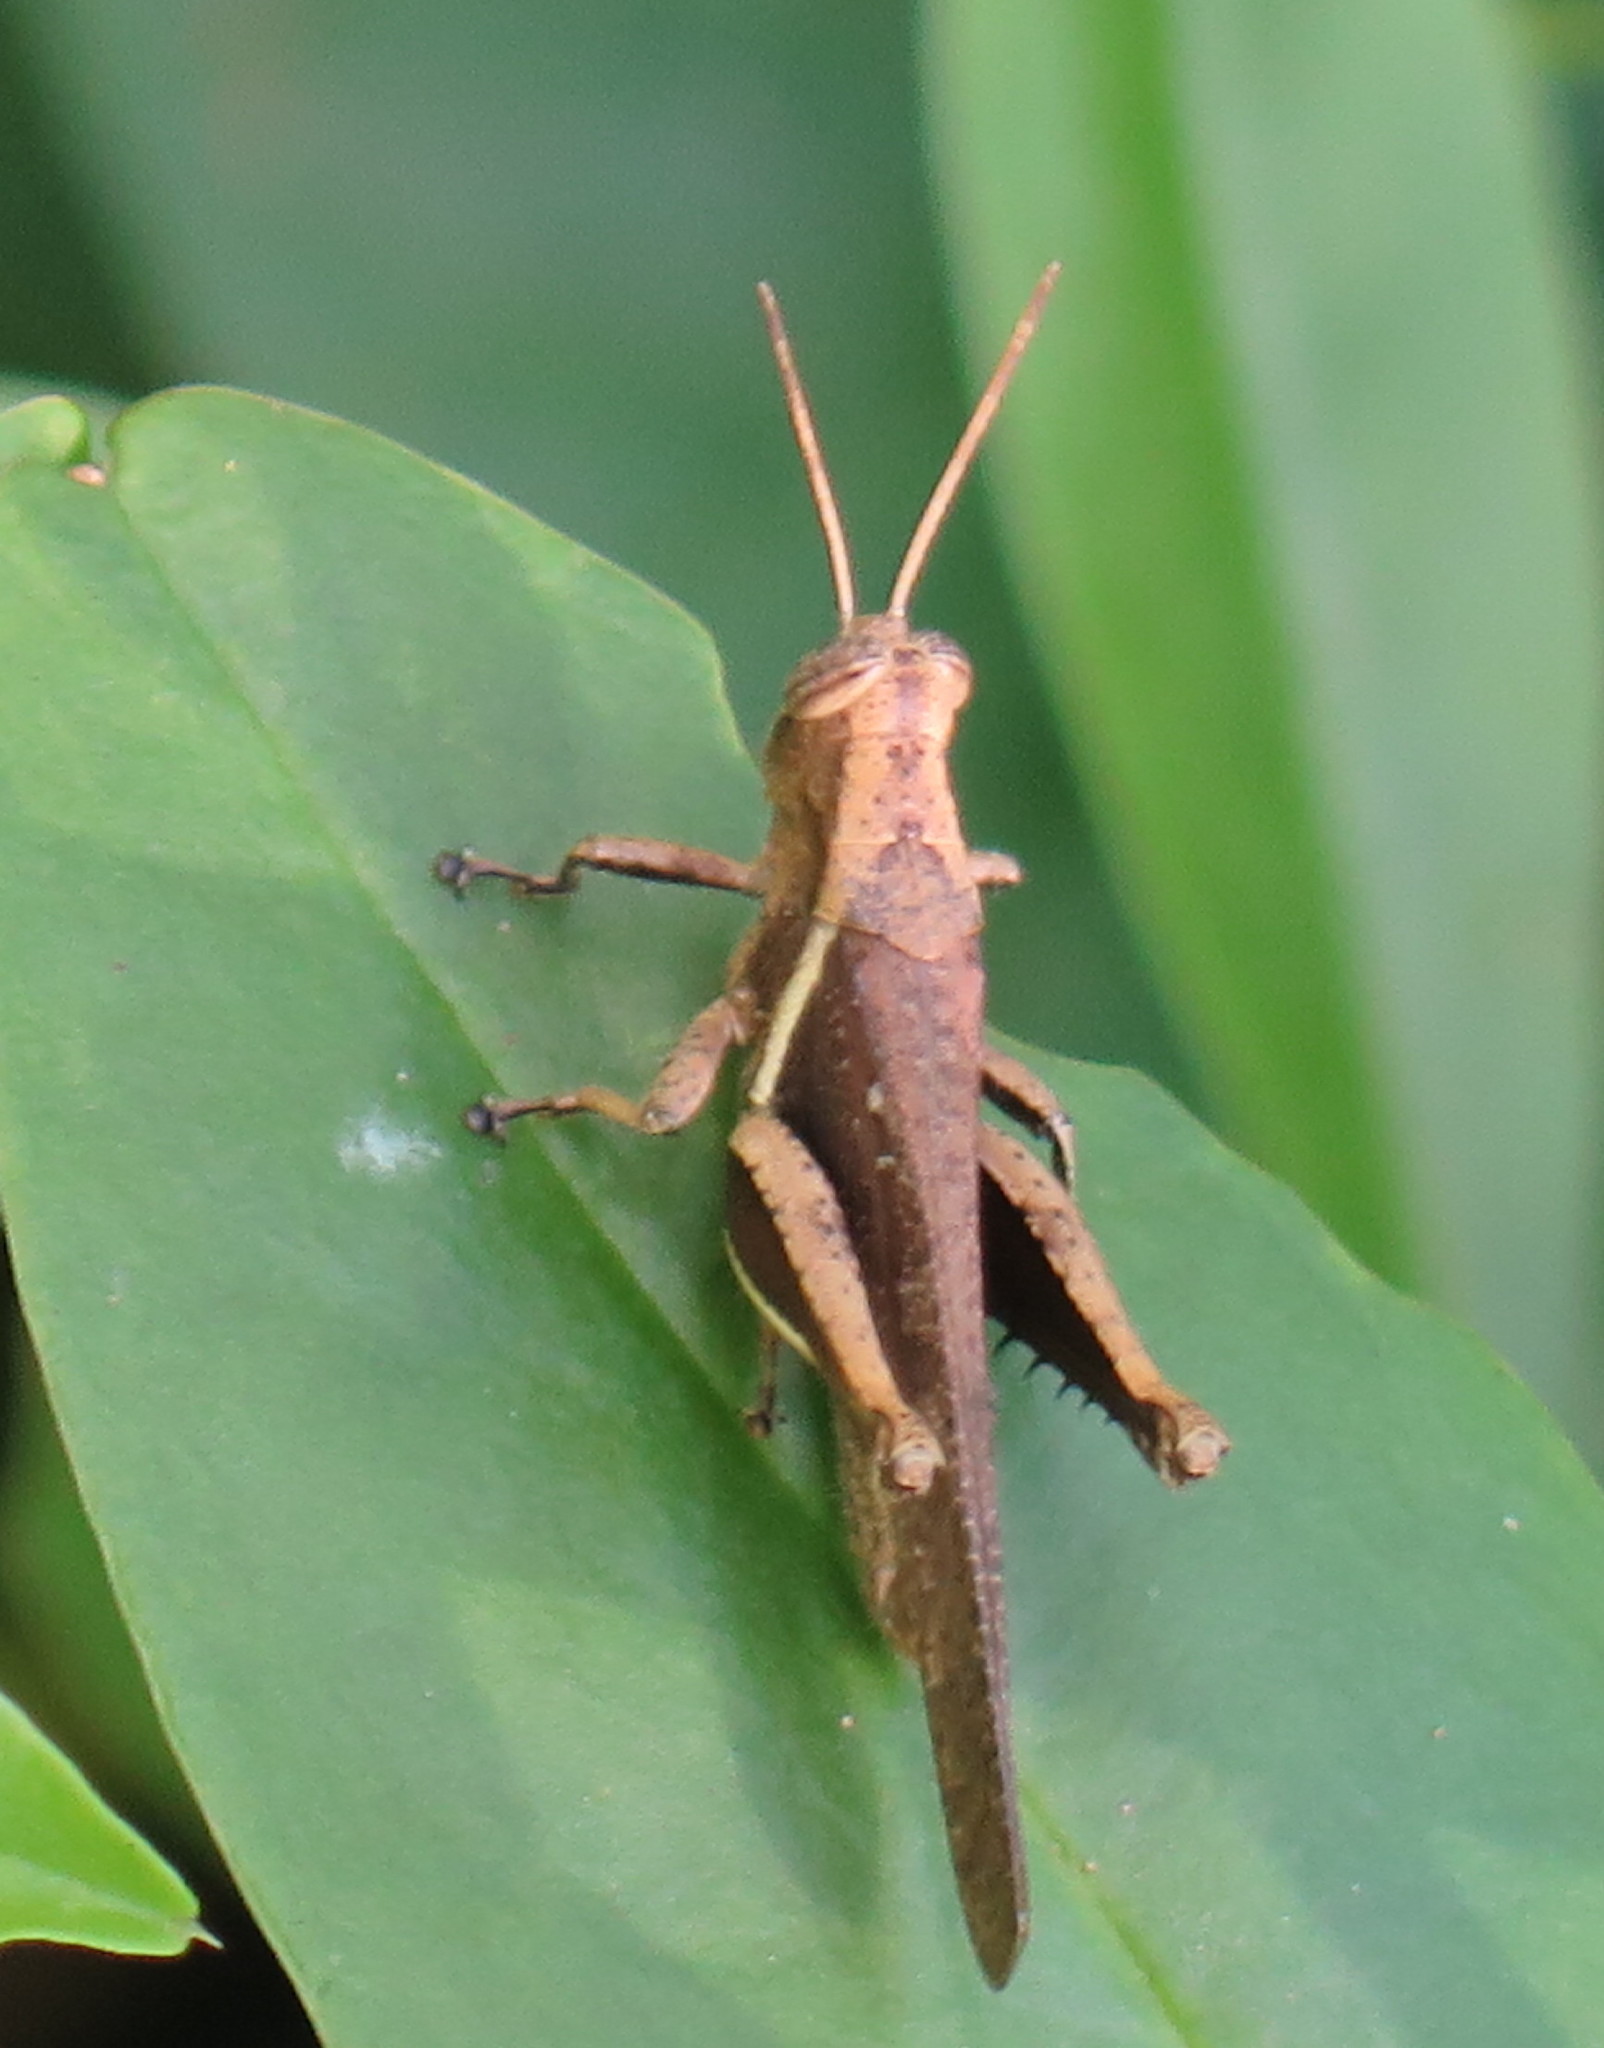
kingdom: Animalia
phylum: Arthropoda
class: Insecta
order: Orthoptera
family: Acrididae
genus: Abracris
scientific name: Abracris flavolineata
